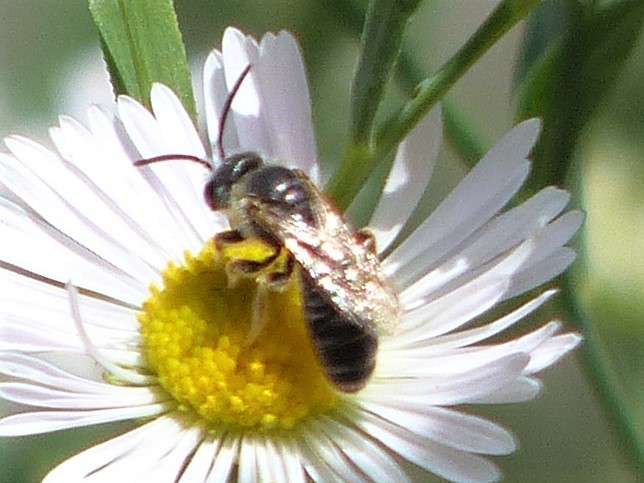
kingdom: Animalia
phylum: Arthropoda
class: Insecta
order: Hymenoptera
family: Halictidae
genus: Halictus
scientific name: Halictus ligatus
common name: Ligated furrow bee
